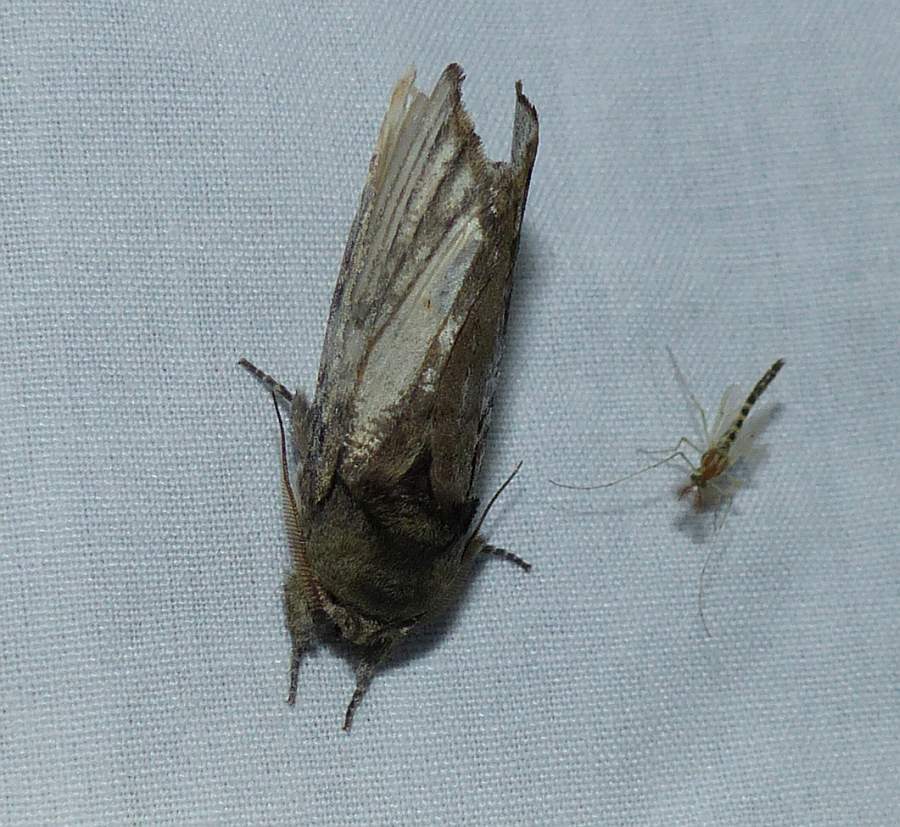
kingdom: Animalia
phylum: Arthropoda
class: Insecta
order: Lepidoptera
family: Notodontidae
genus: Schizura
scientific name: Schizura badia
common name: Chestnut schizura
